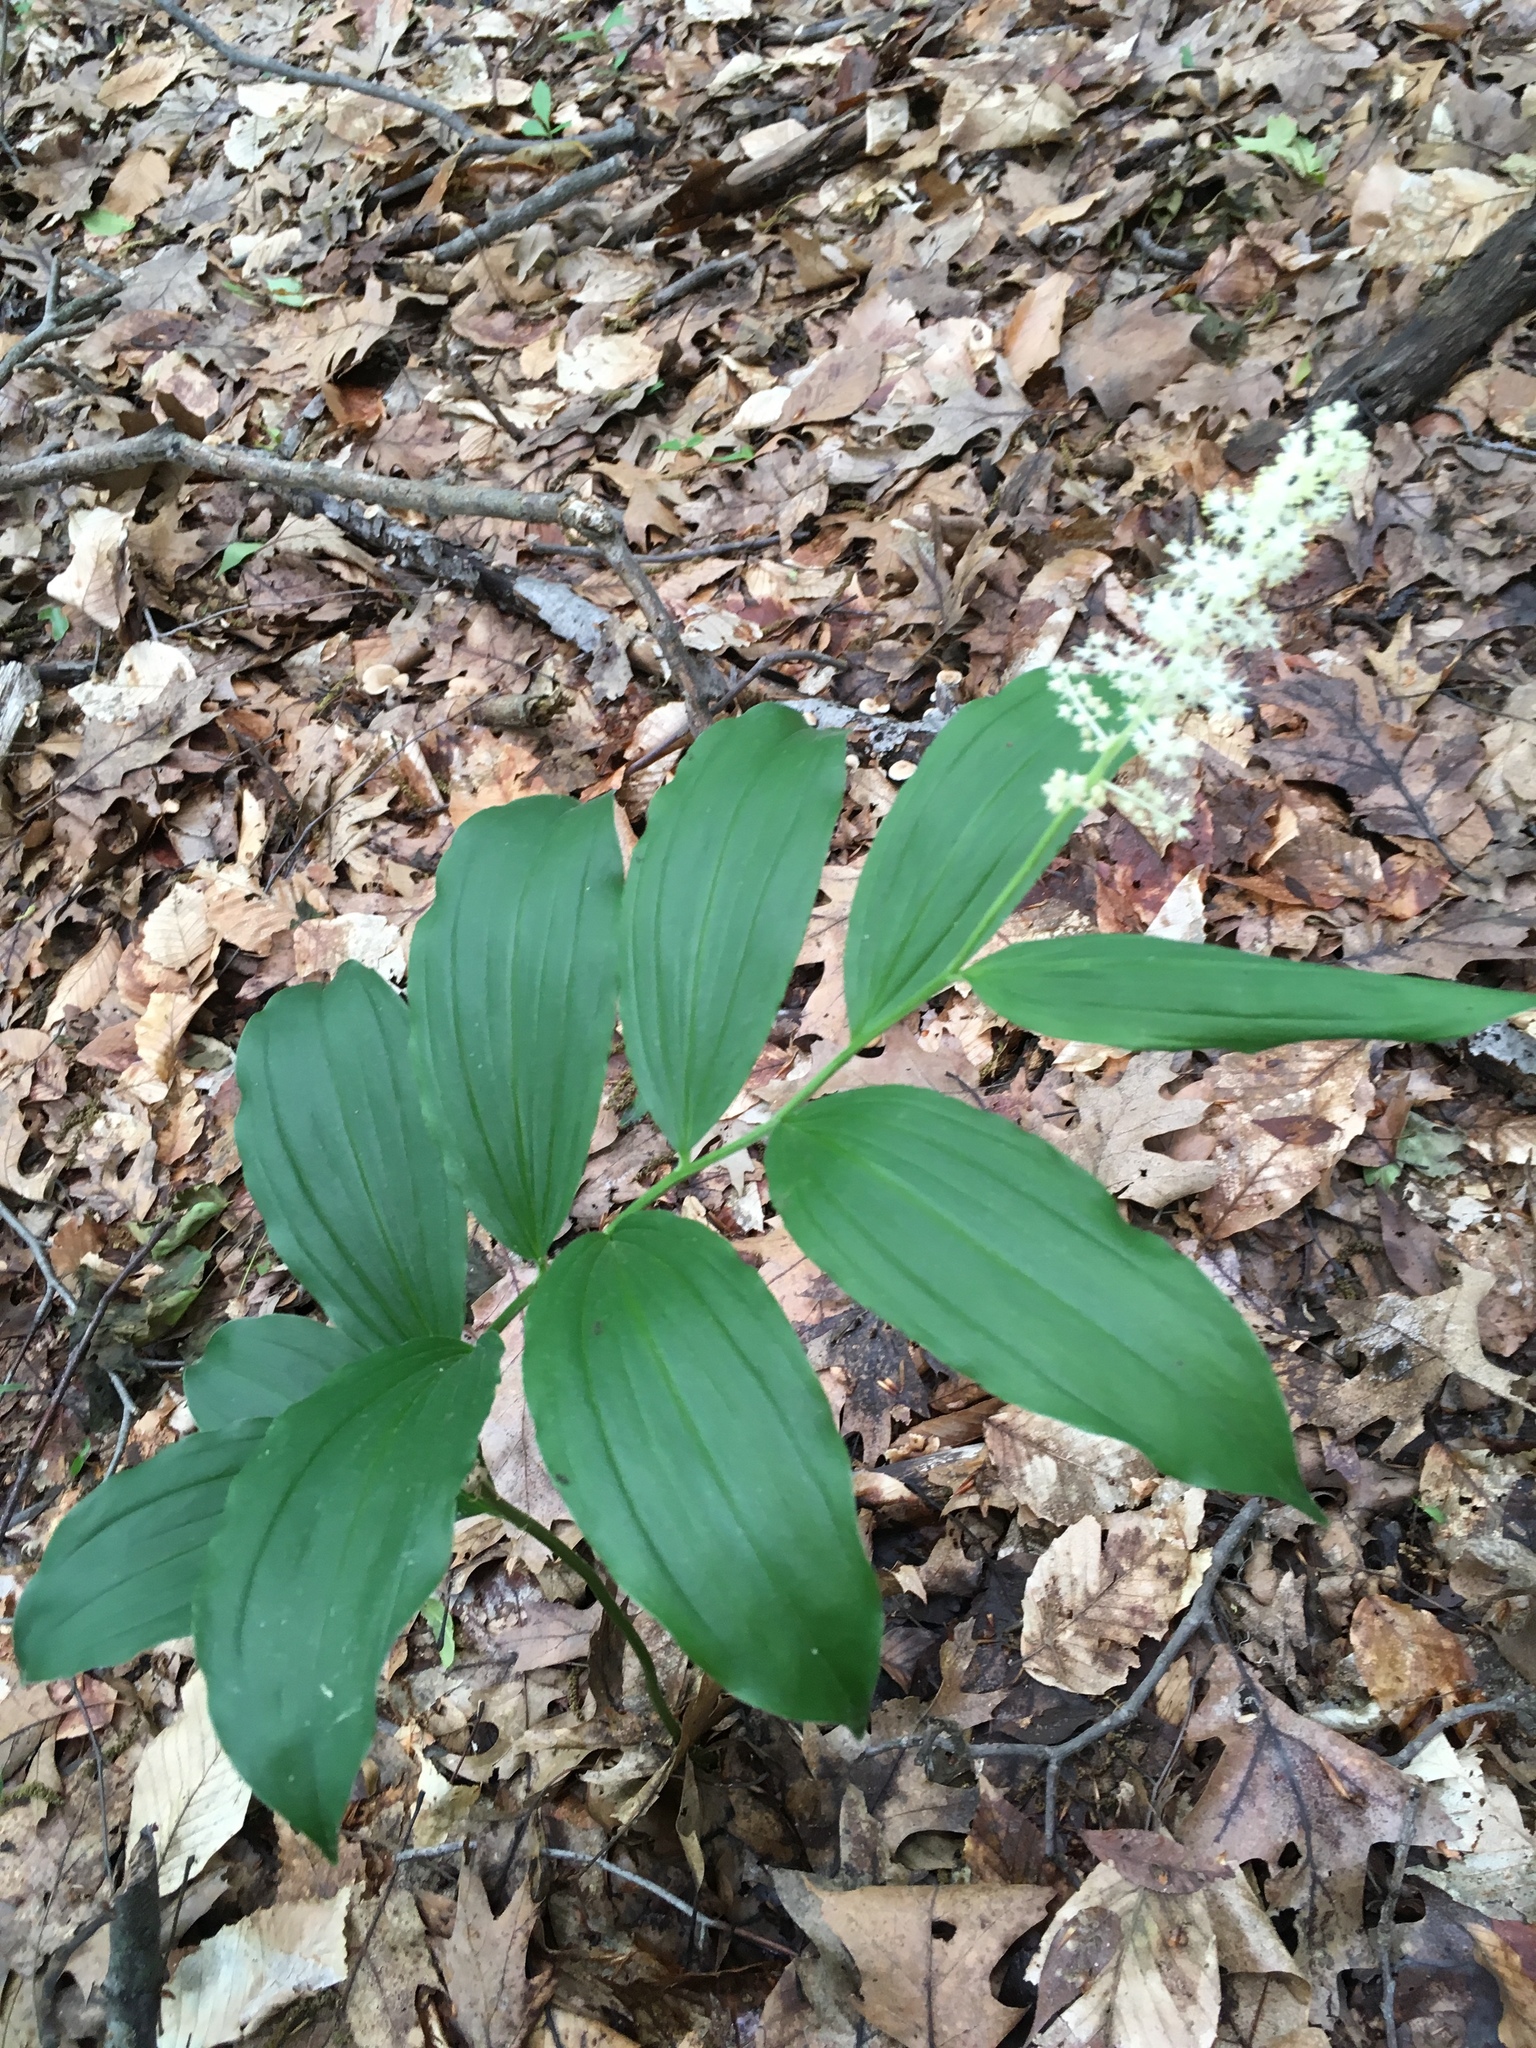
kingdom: Plantae
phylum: Tracheophyta
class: Liliopsida
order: Asparagales
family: Asparagaceae
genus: Maianthemum
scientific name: Maianthemum racemosum
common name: False spikenard
